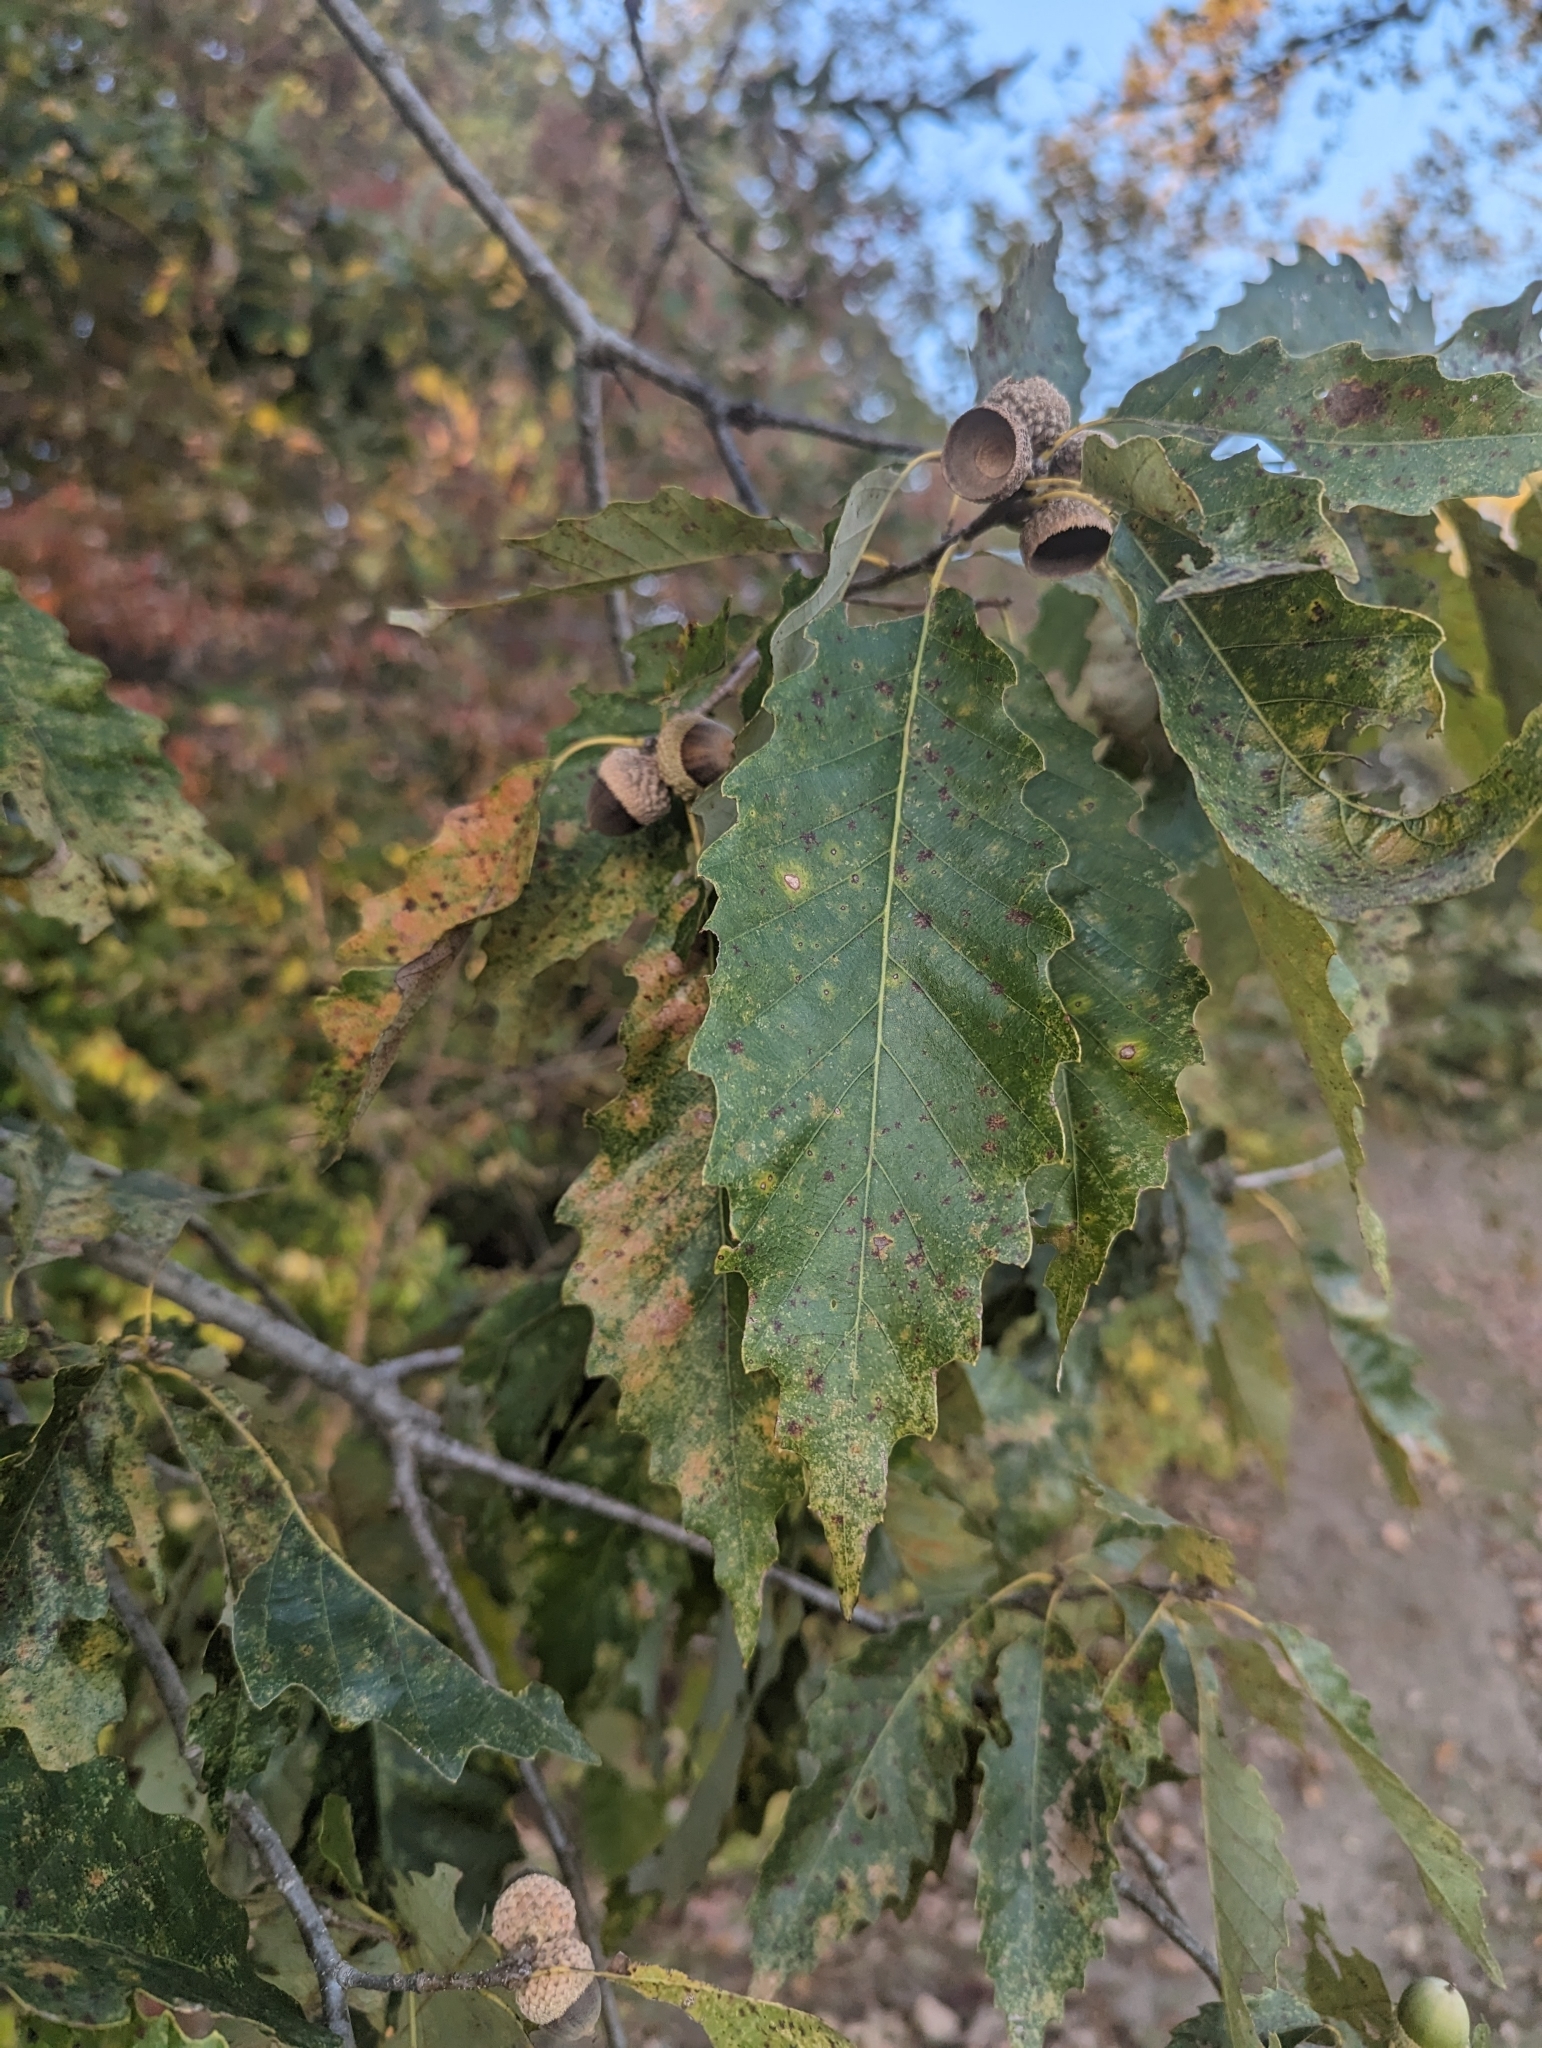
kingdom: Plantae
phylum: Tracheophyta
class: Magnoliopsida
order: Fagales
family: Fagaceae
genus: Quercus
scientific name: Quercus muehlenbergii
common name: Chinkapin oak
